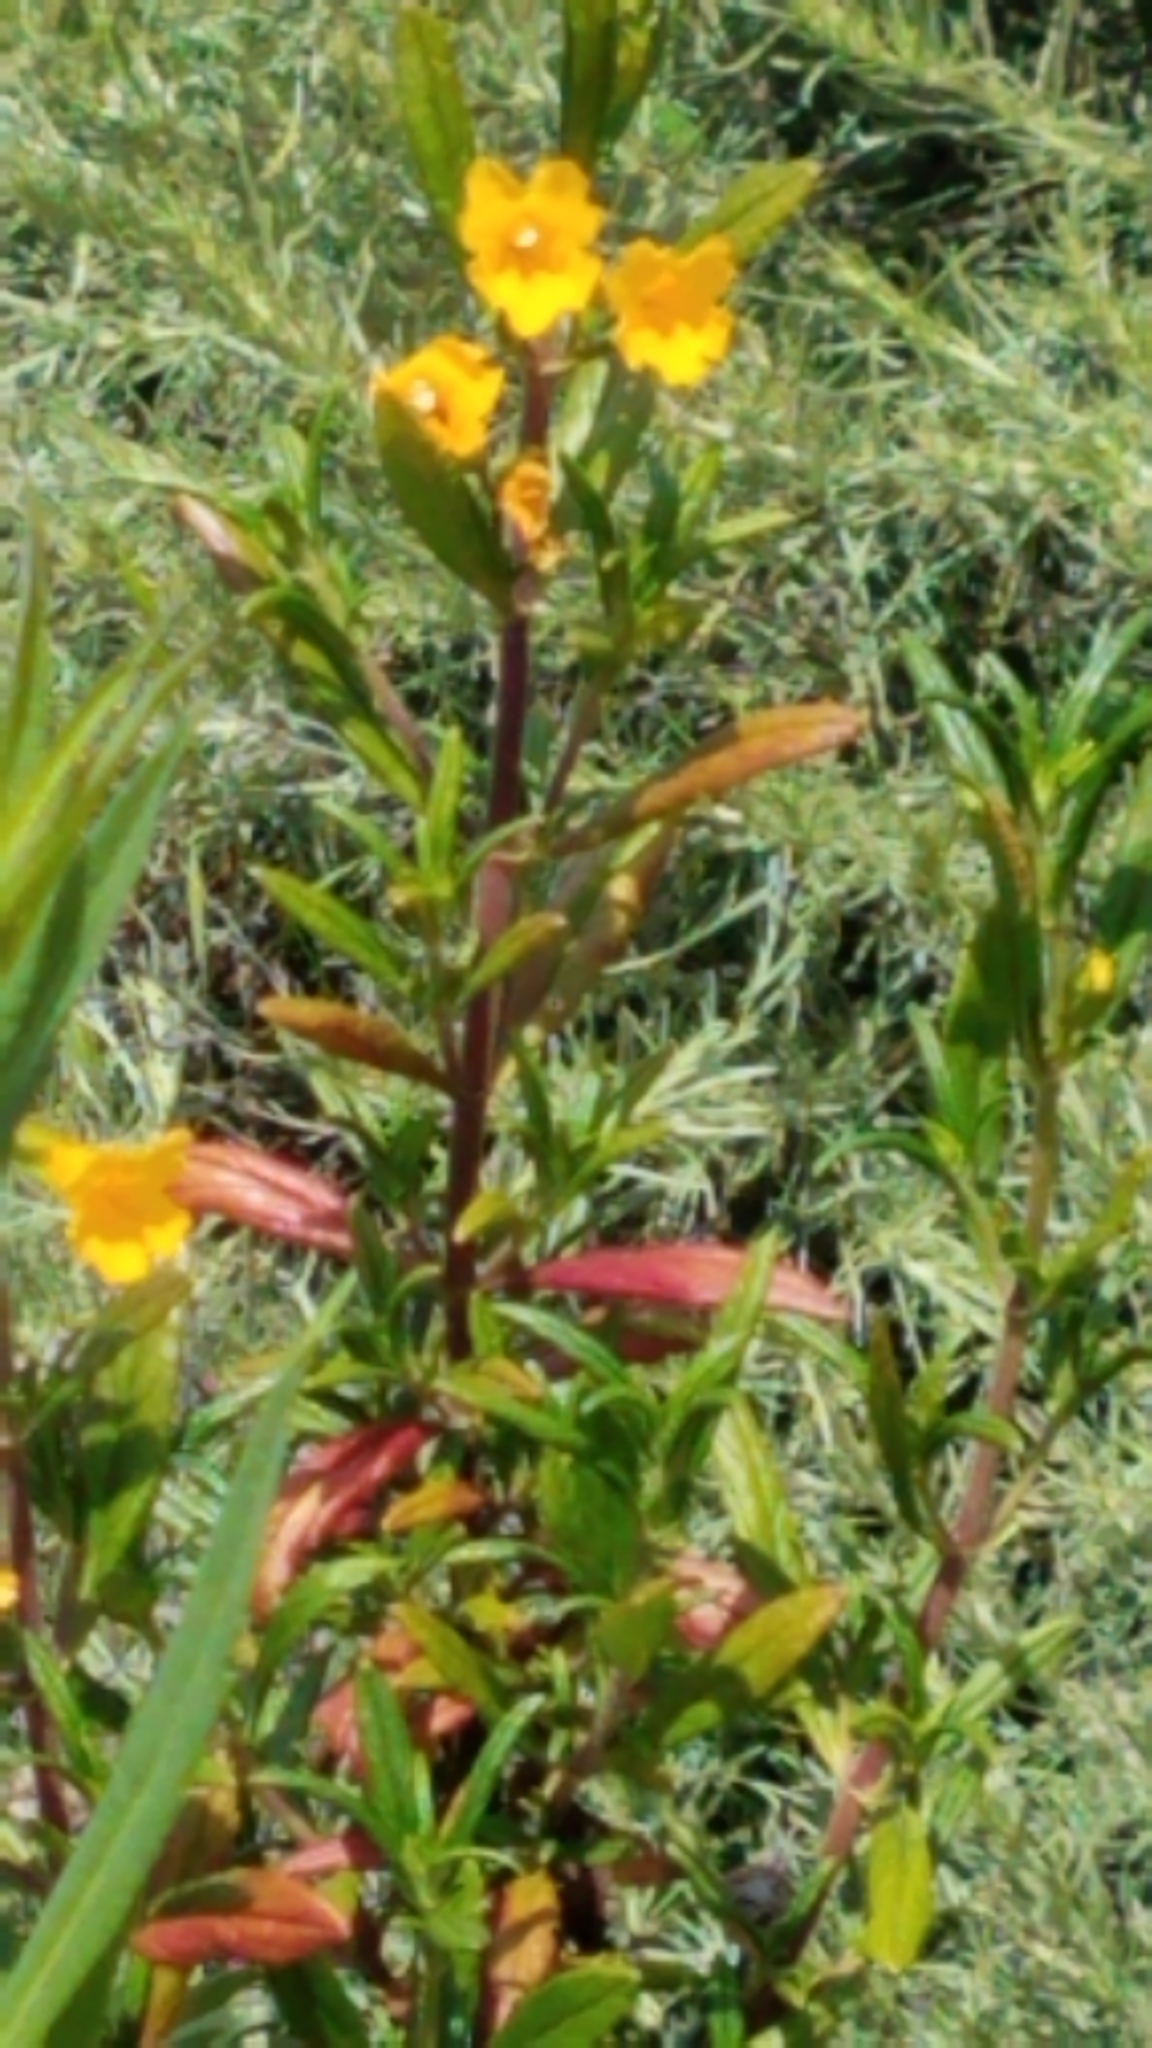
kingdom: Plantae
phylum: Tracheophyta
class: Magnoliopsida
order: Lamiales
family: Phrymaceae
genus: Diplacus
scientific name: Diplacus aurantiacus
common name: Bush monkey-flower
